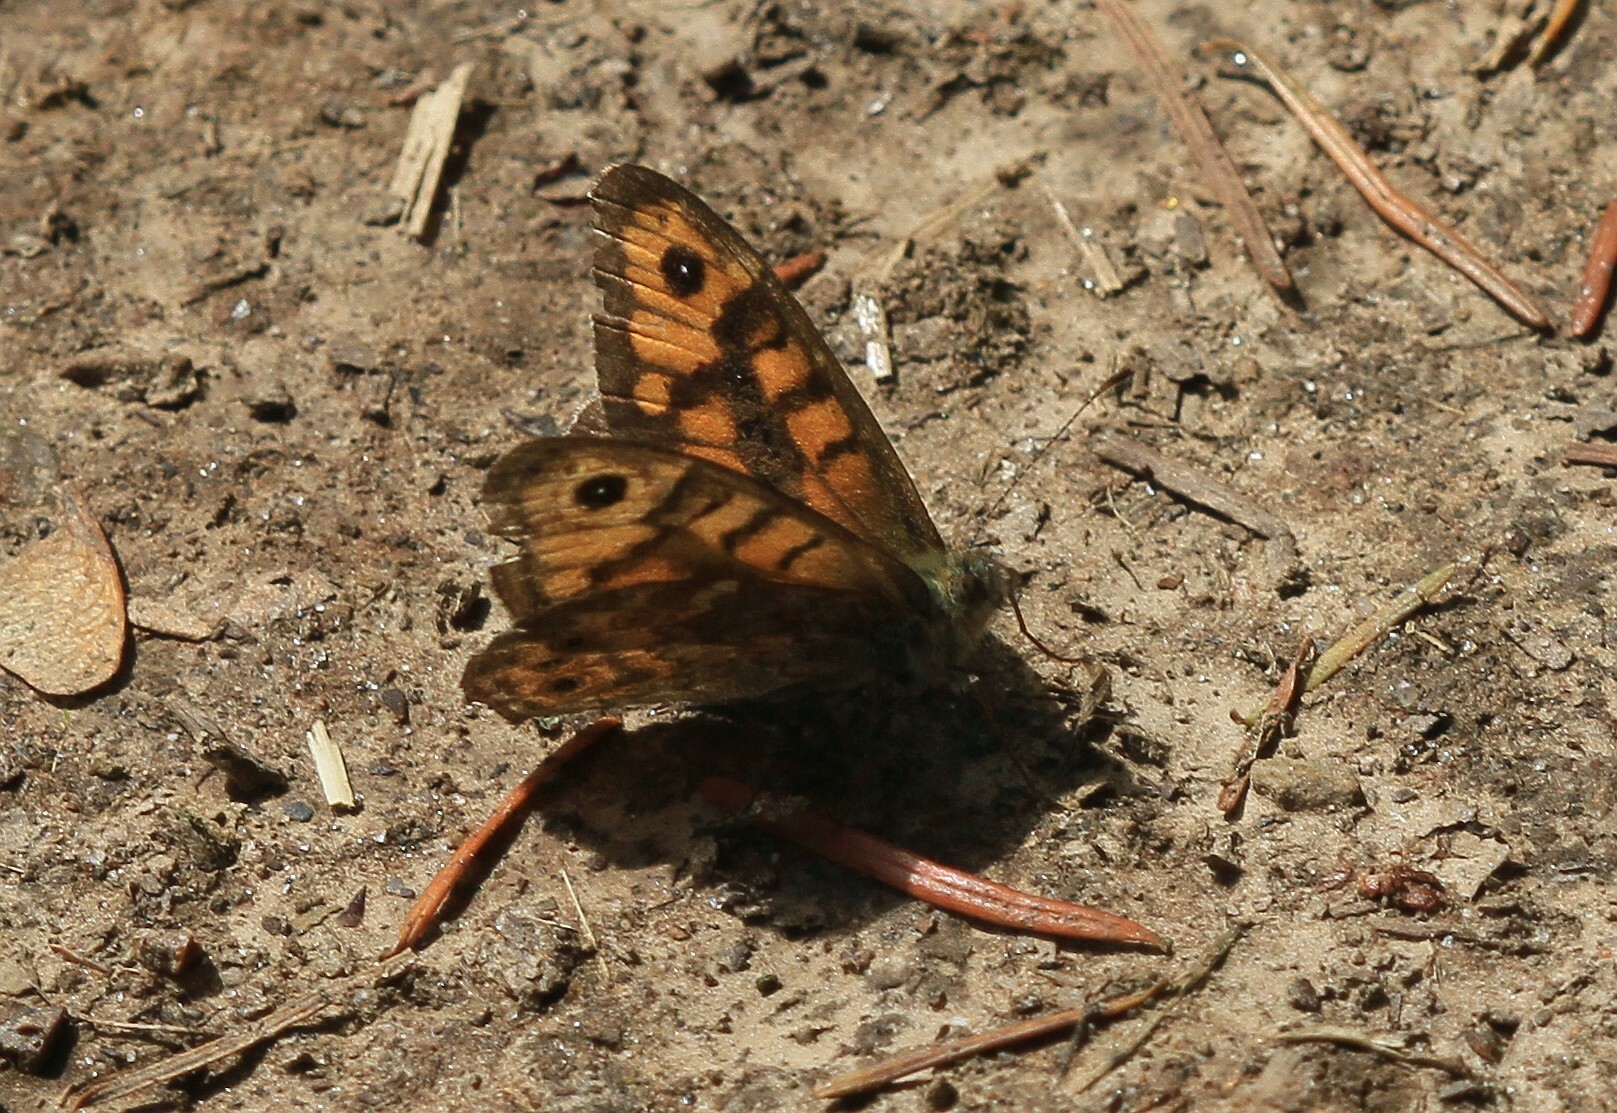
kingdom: Animalia
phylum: Arthropoda
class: Insecta
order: Lepidoptera
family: Nymphalidae
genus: Pararge
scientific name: Pararge Lasiommata megera
